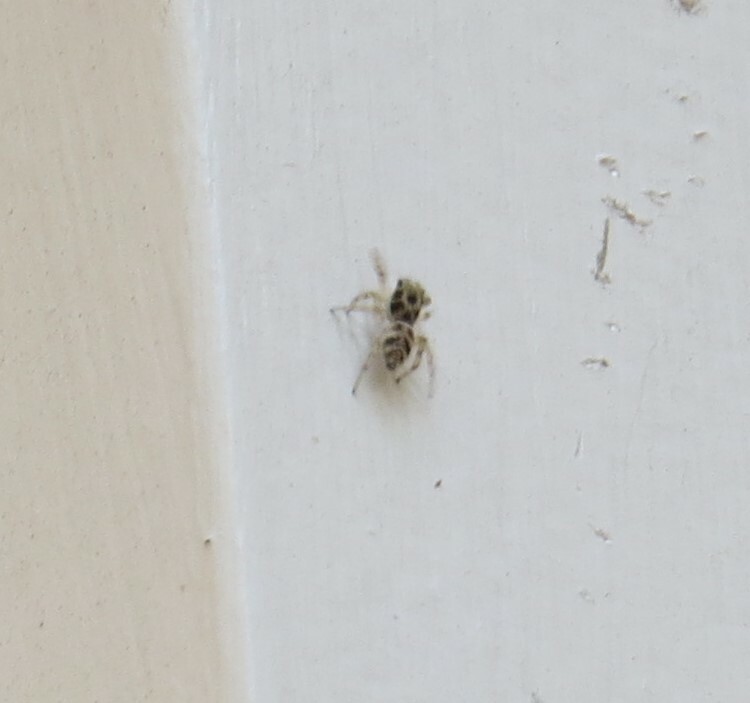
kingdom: Animalia
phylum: Arthropoda
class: Arachnida
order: Araneae
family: Salticidae
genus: Salticus
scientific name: Salticus scenicus
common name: Zebra jumper
